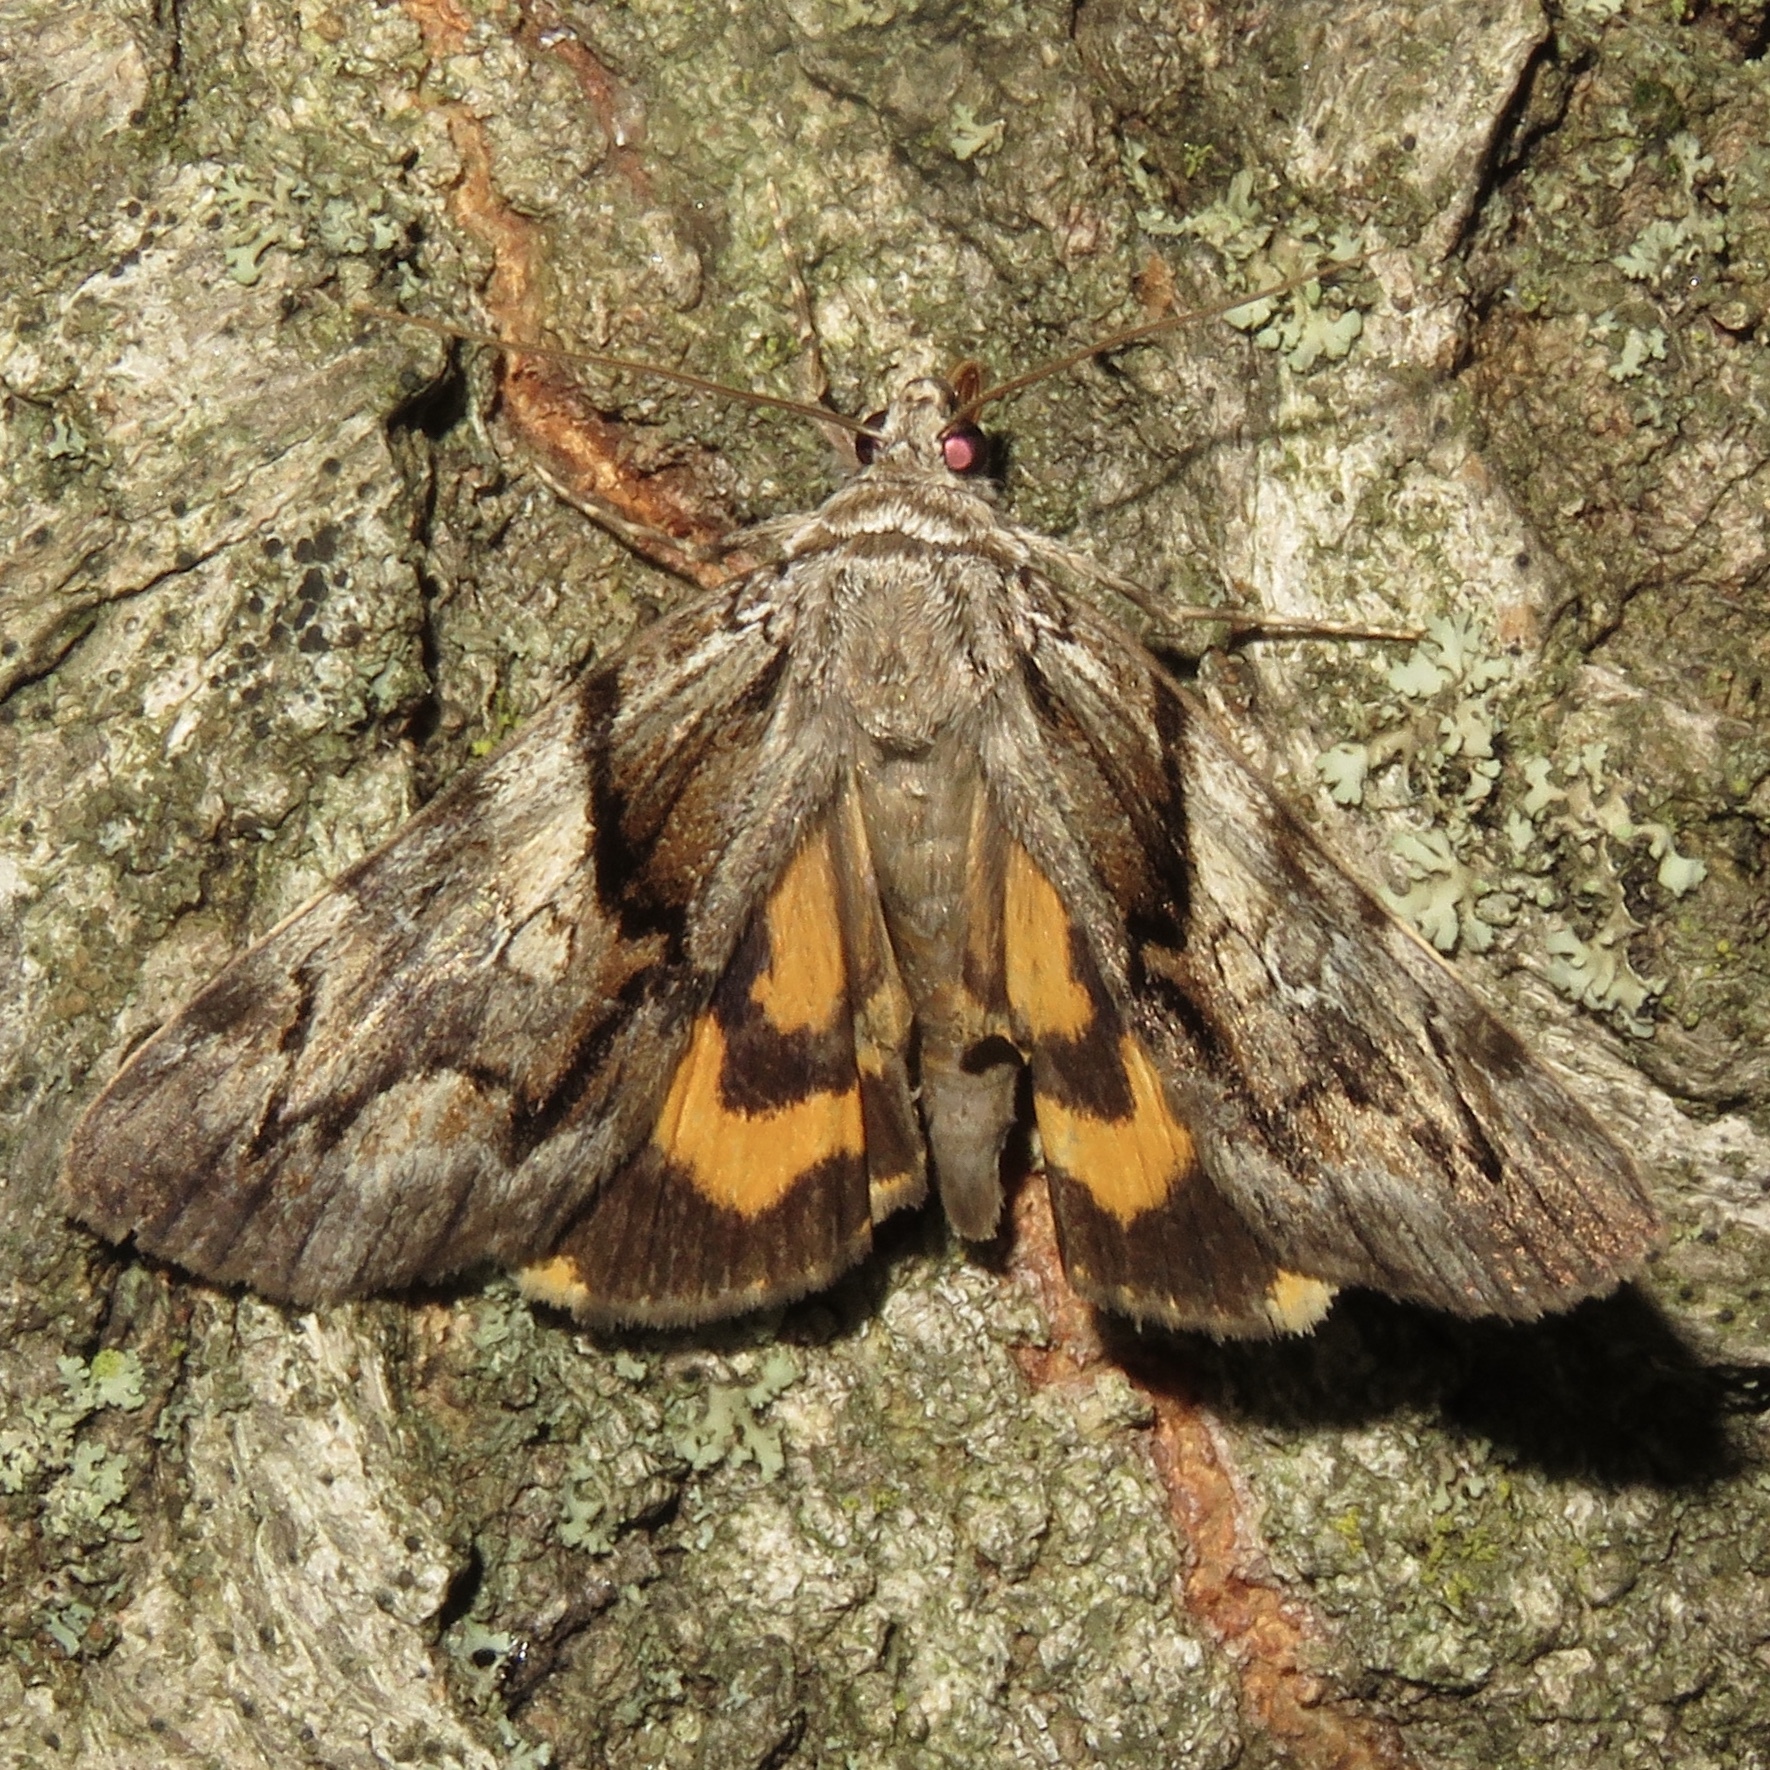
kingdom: Animalia
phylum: Arthropoda
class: Insecta
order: Lepidoptera
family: Erebidae
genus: Catocala
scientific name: Catocala blandula
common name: Charming underwing
